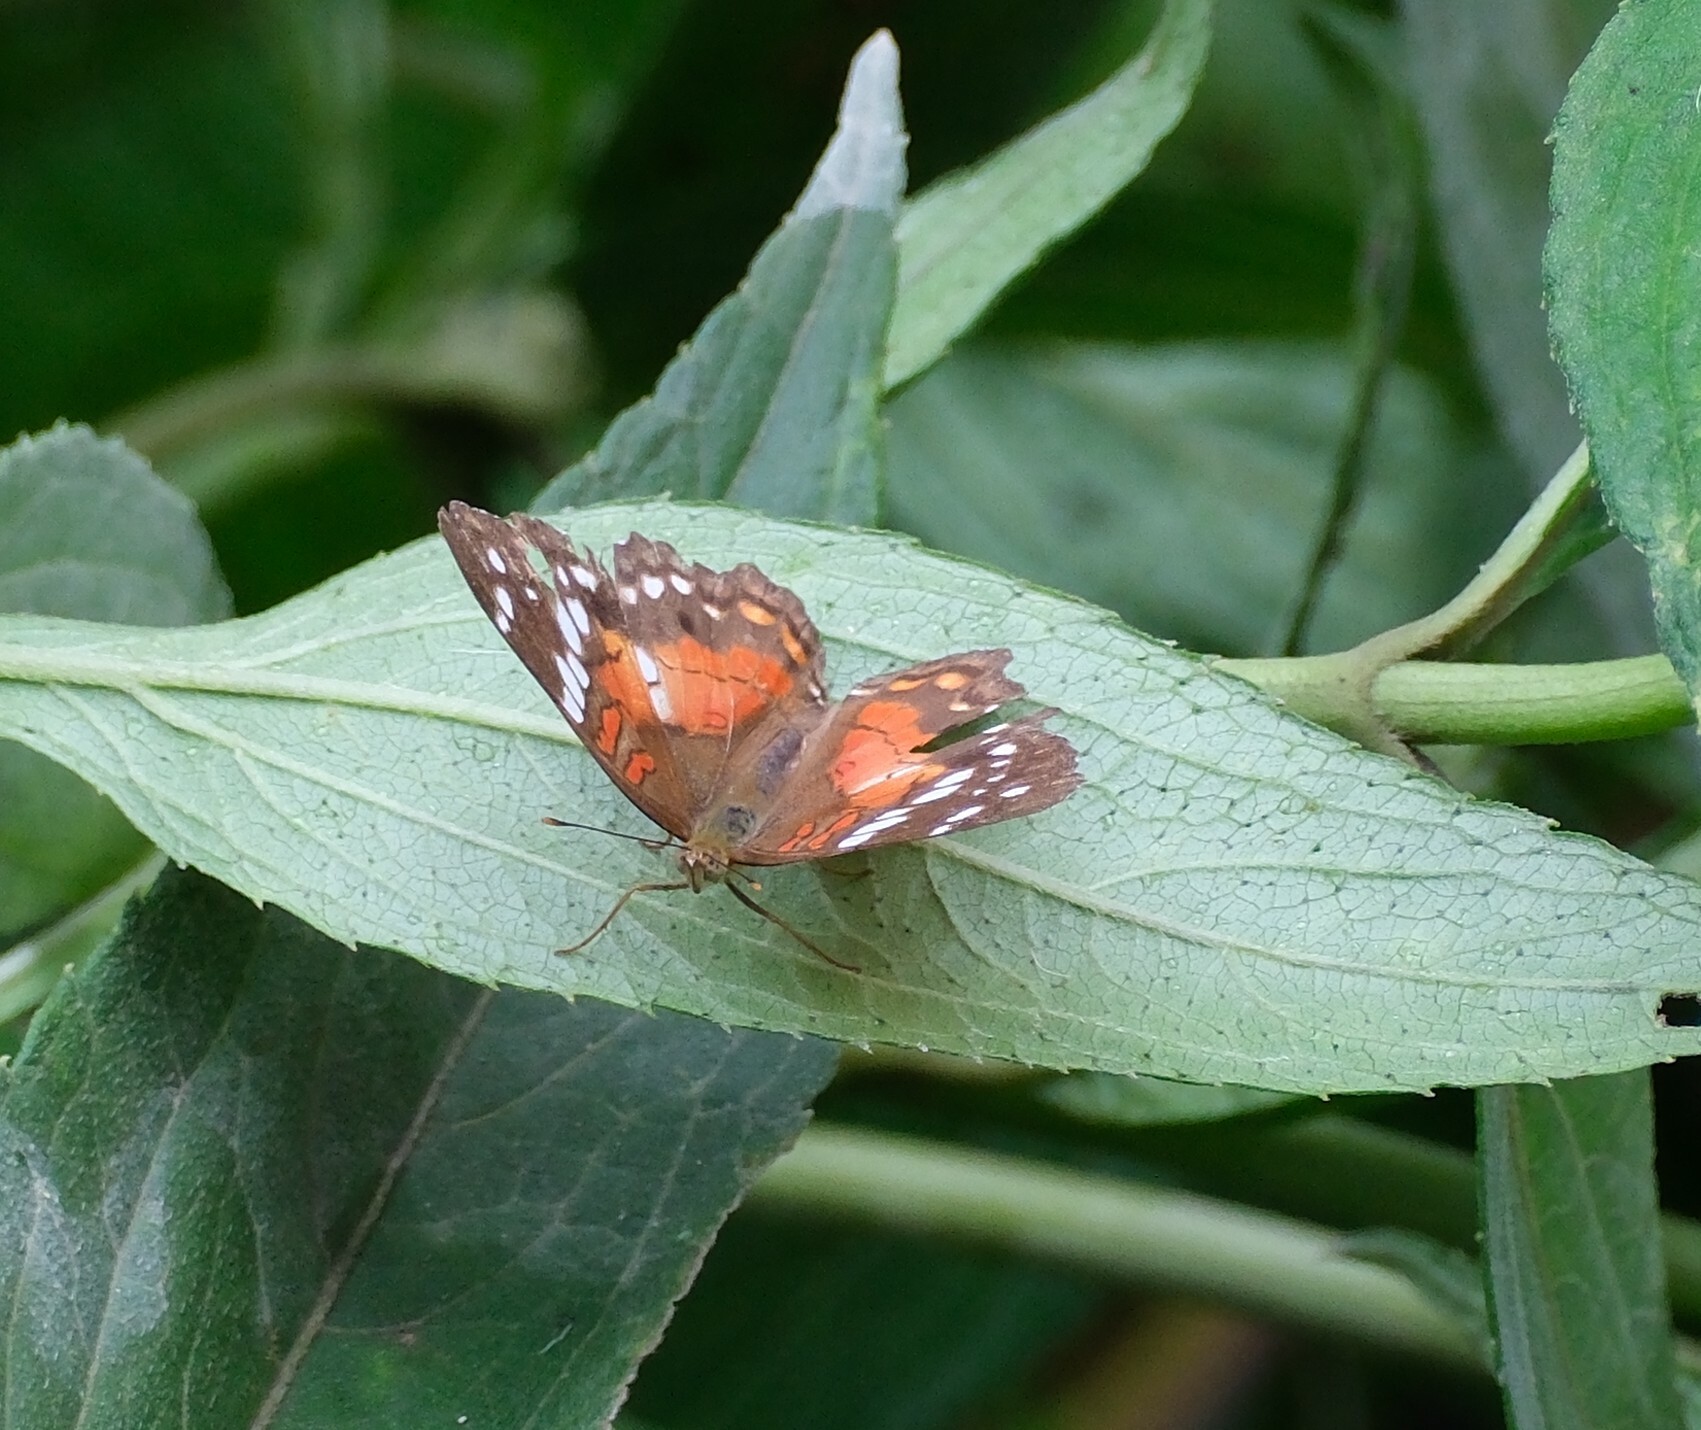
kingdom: Animalia
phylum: Arthropoda
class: Insecta
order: Lepidoptera
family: Nymphalidae
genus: Anartia
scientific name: Anartia amathea
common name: Red peacock
